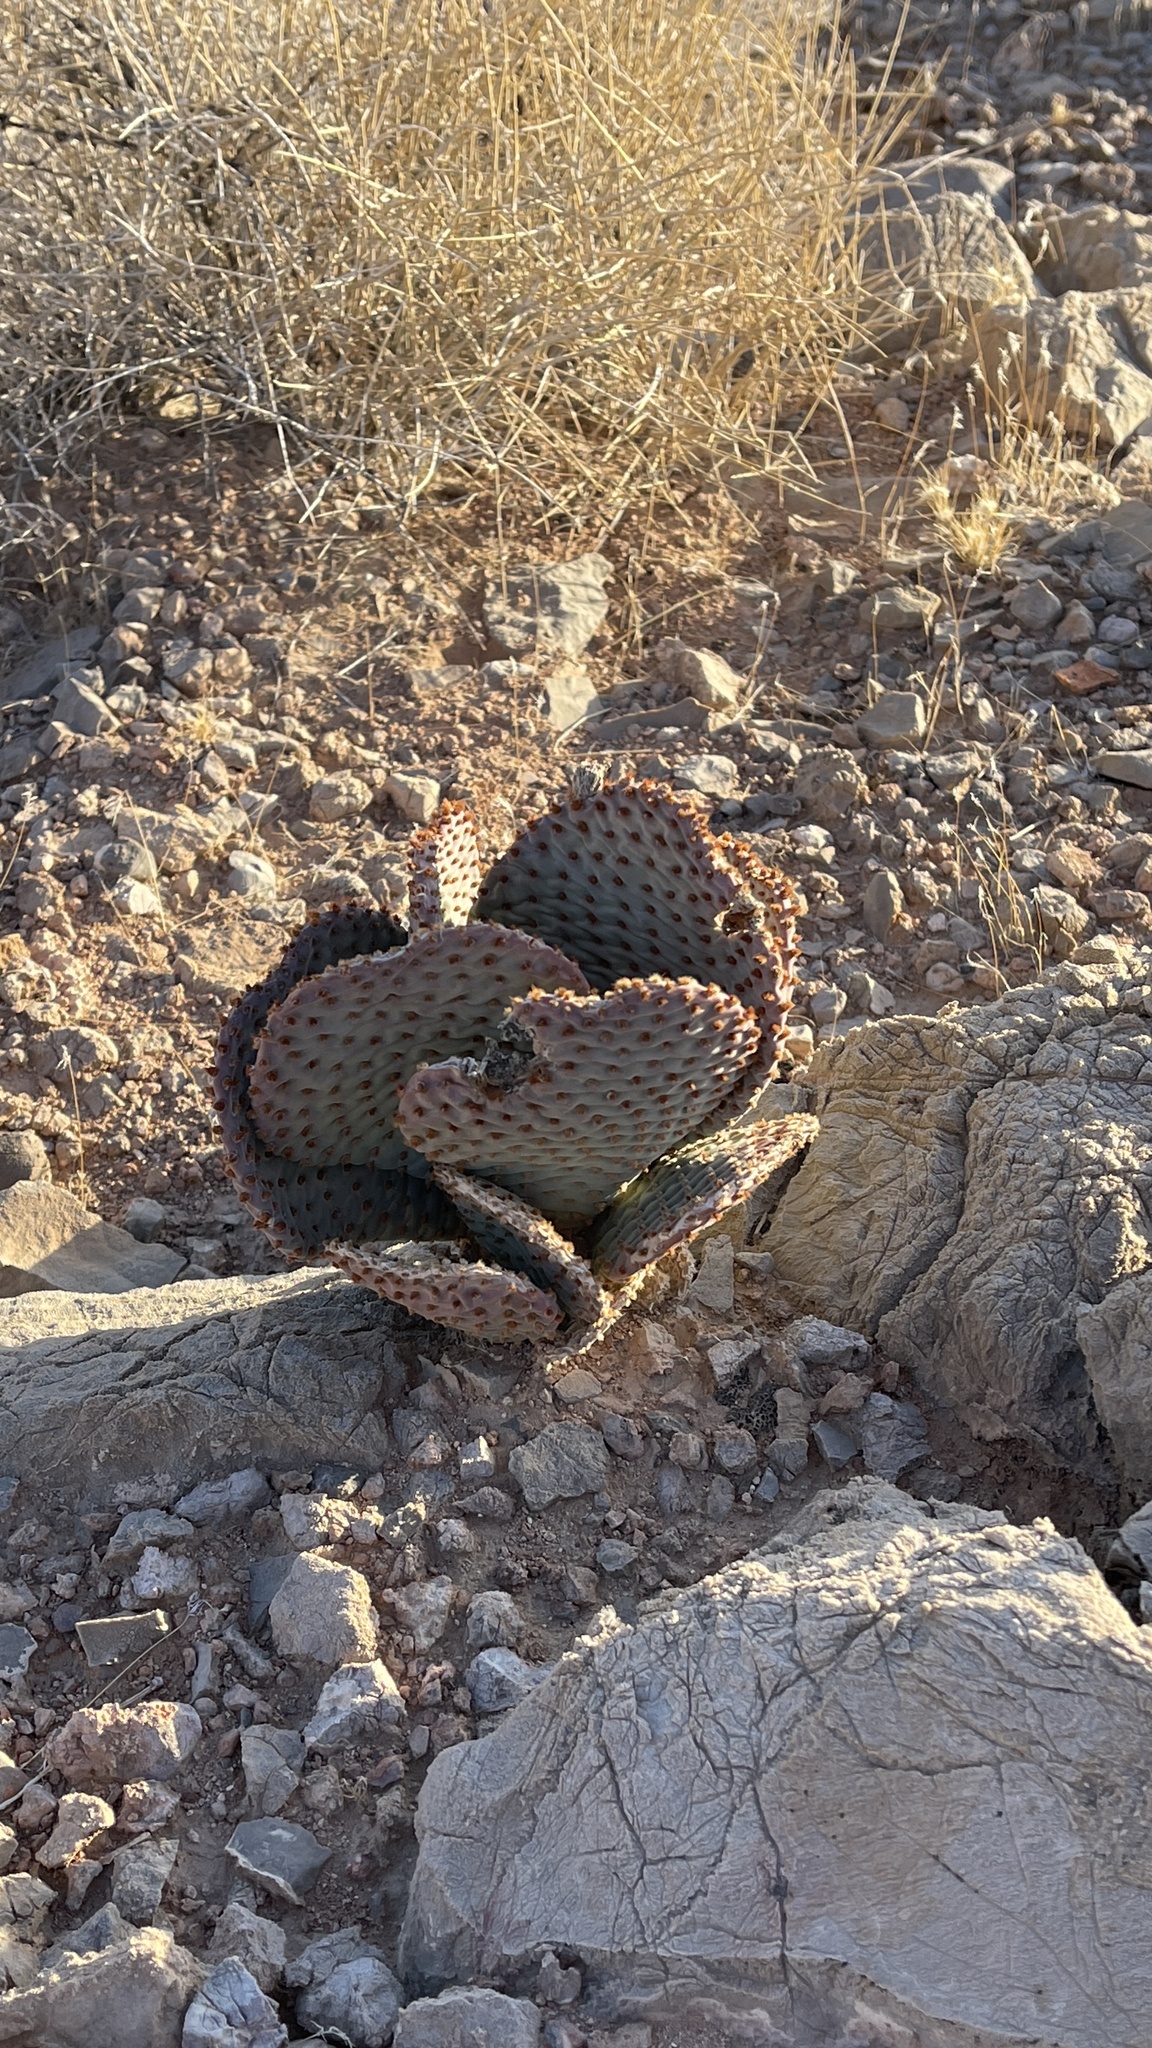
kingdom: Plantae
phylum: Tracheophyta
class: Magnoliopsida
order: Caryophyllales
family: Cactaceae
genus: Opuntia
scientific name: Opuntia basilaris
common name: Beavertail prickly-pear
